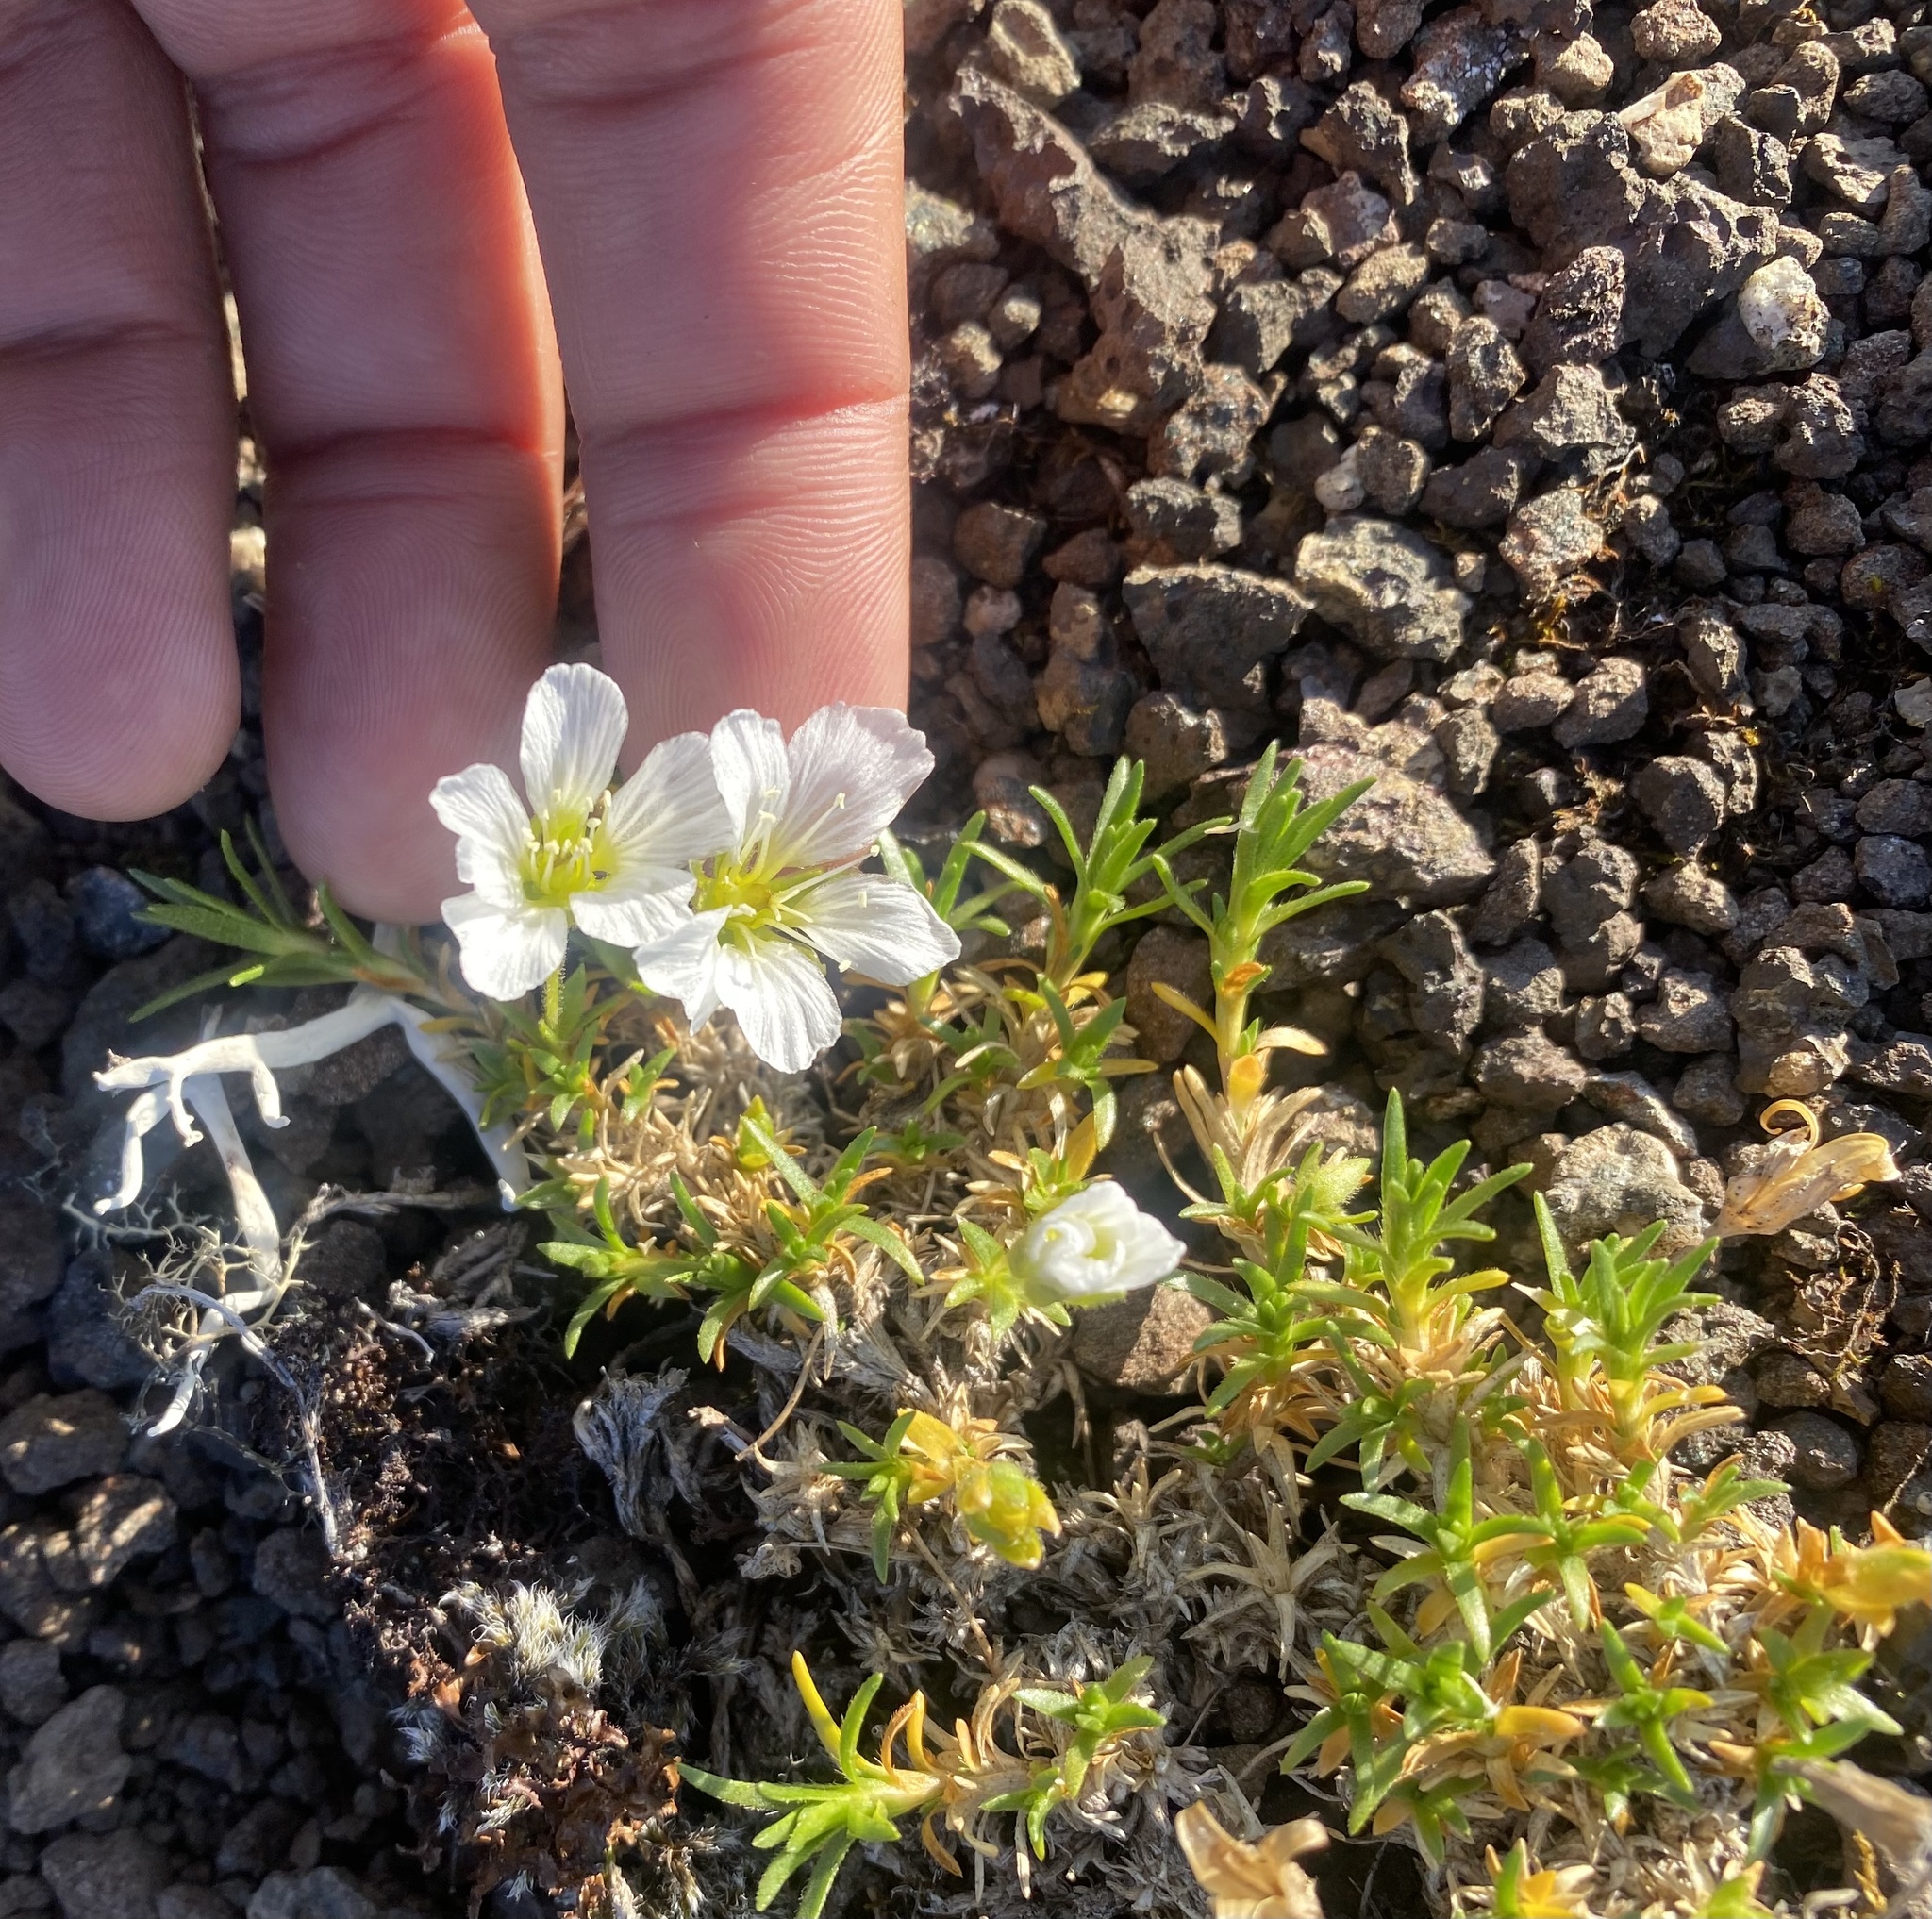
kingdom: Plantae
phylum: Tracheophyta
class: Magnoliopsida
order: Caryophyllales
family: Caryophyllaceae
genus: Cherleria
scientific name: Cherleria arctica
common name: Arctic sandwort
